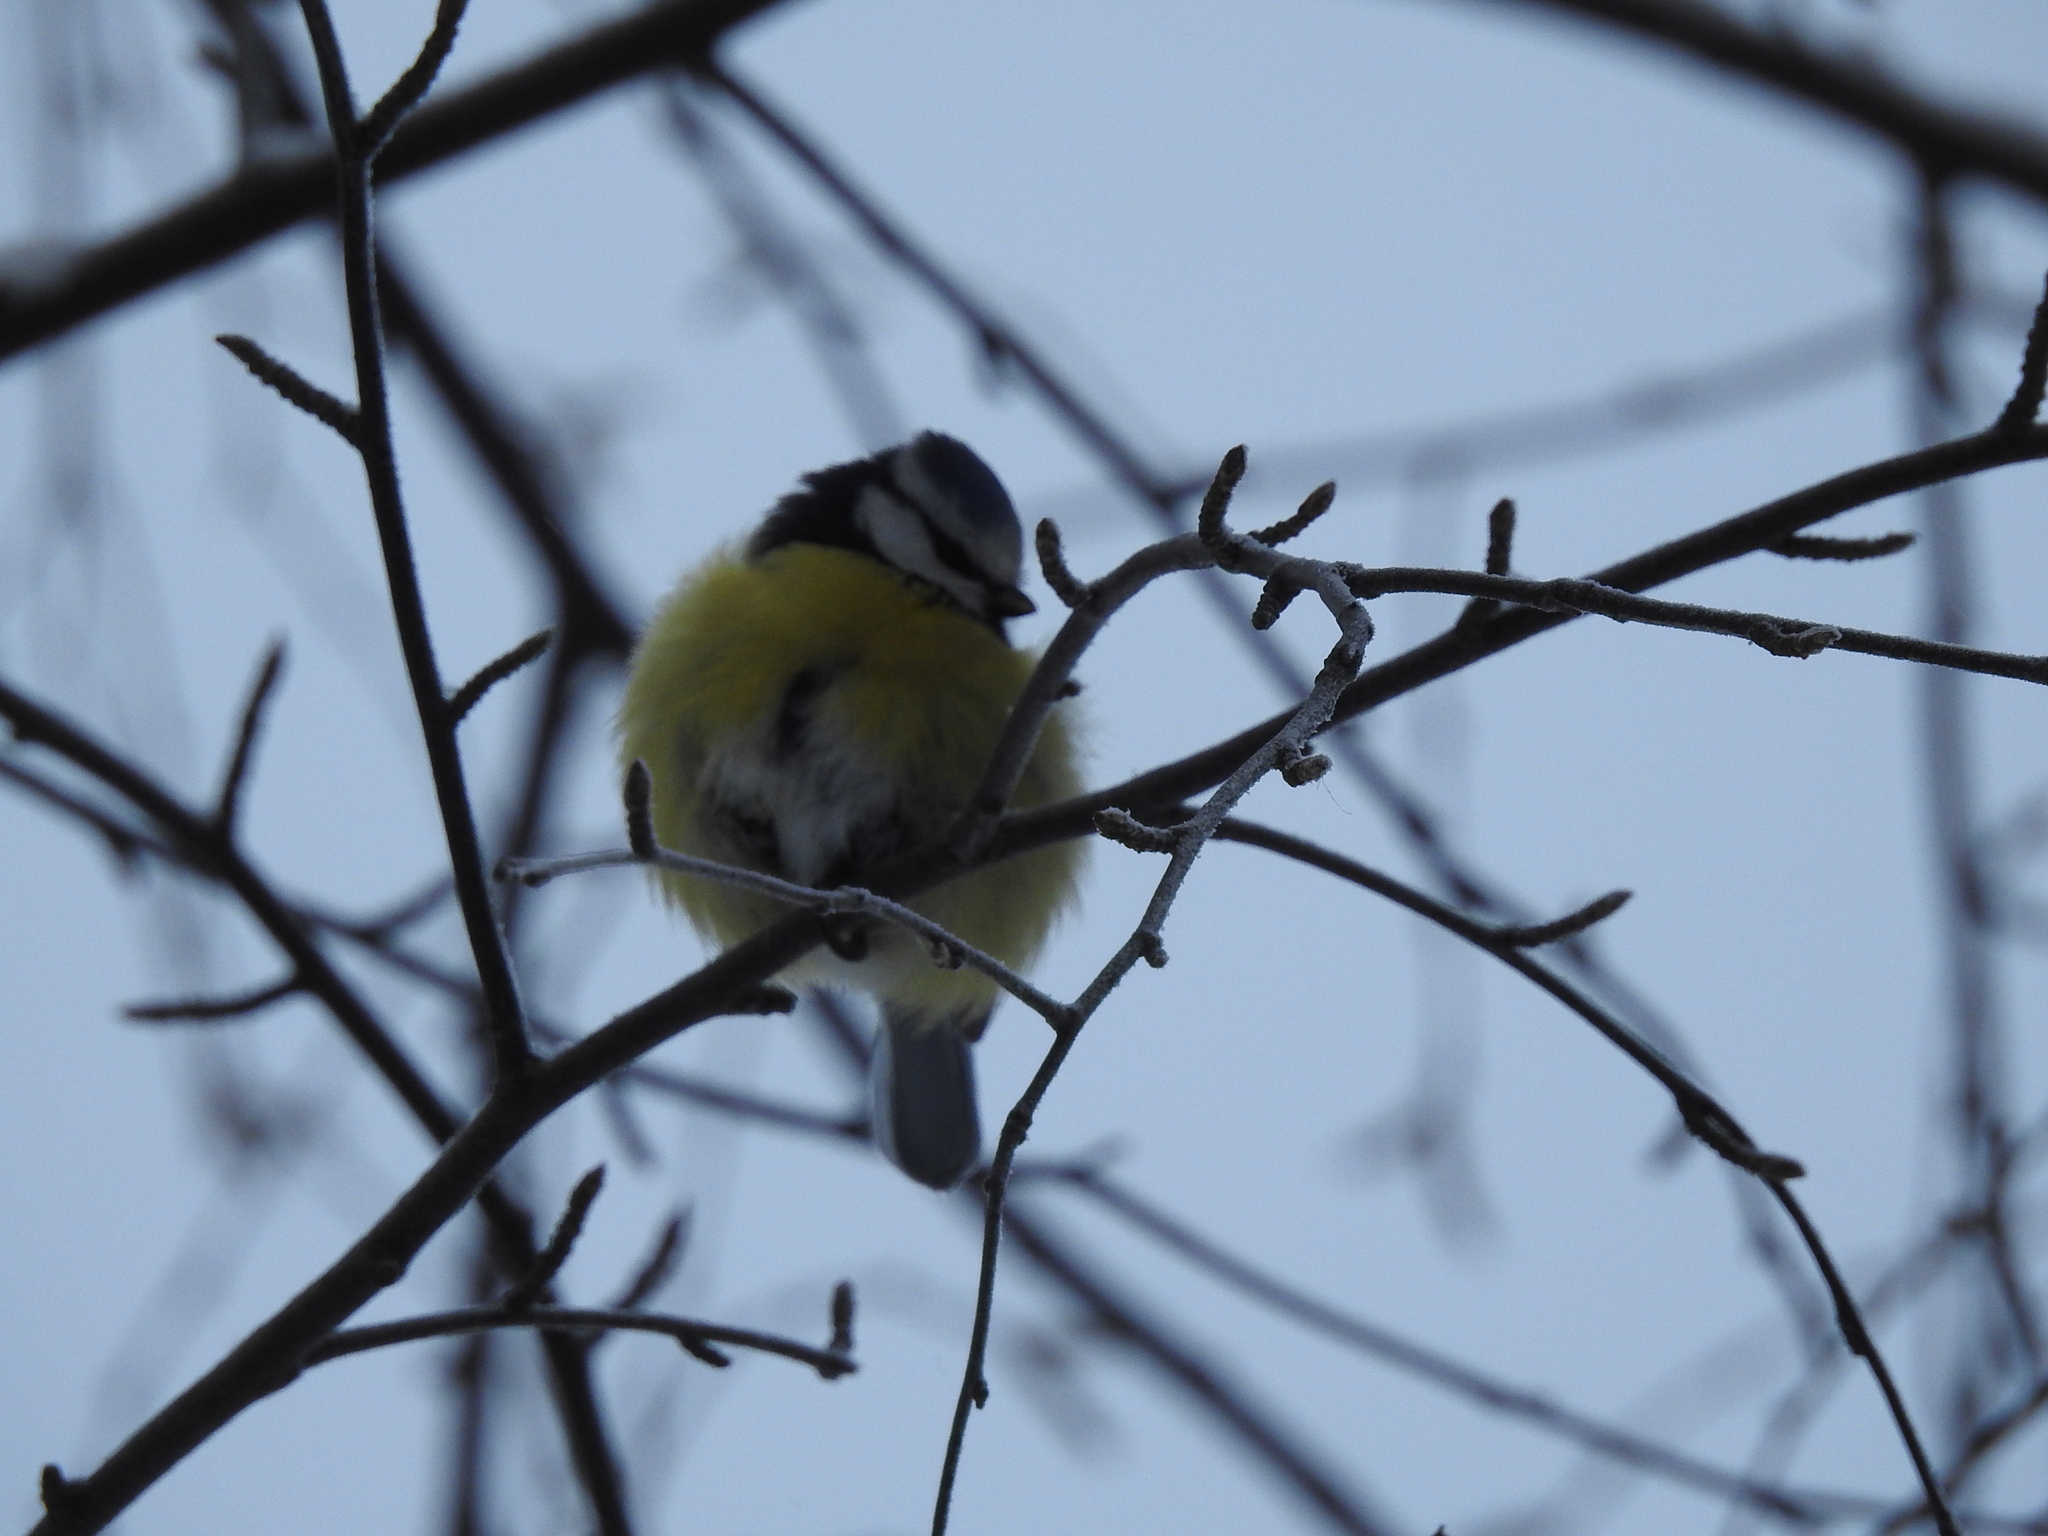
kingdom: Animalia
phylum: Chordata
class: Aves
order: Passeriformes
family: Paridae
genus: Cyanistes
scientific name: Cyanistes caeruleus
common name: Eurasian blue tit
